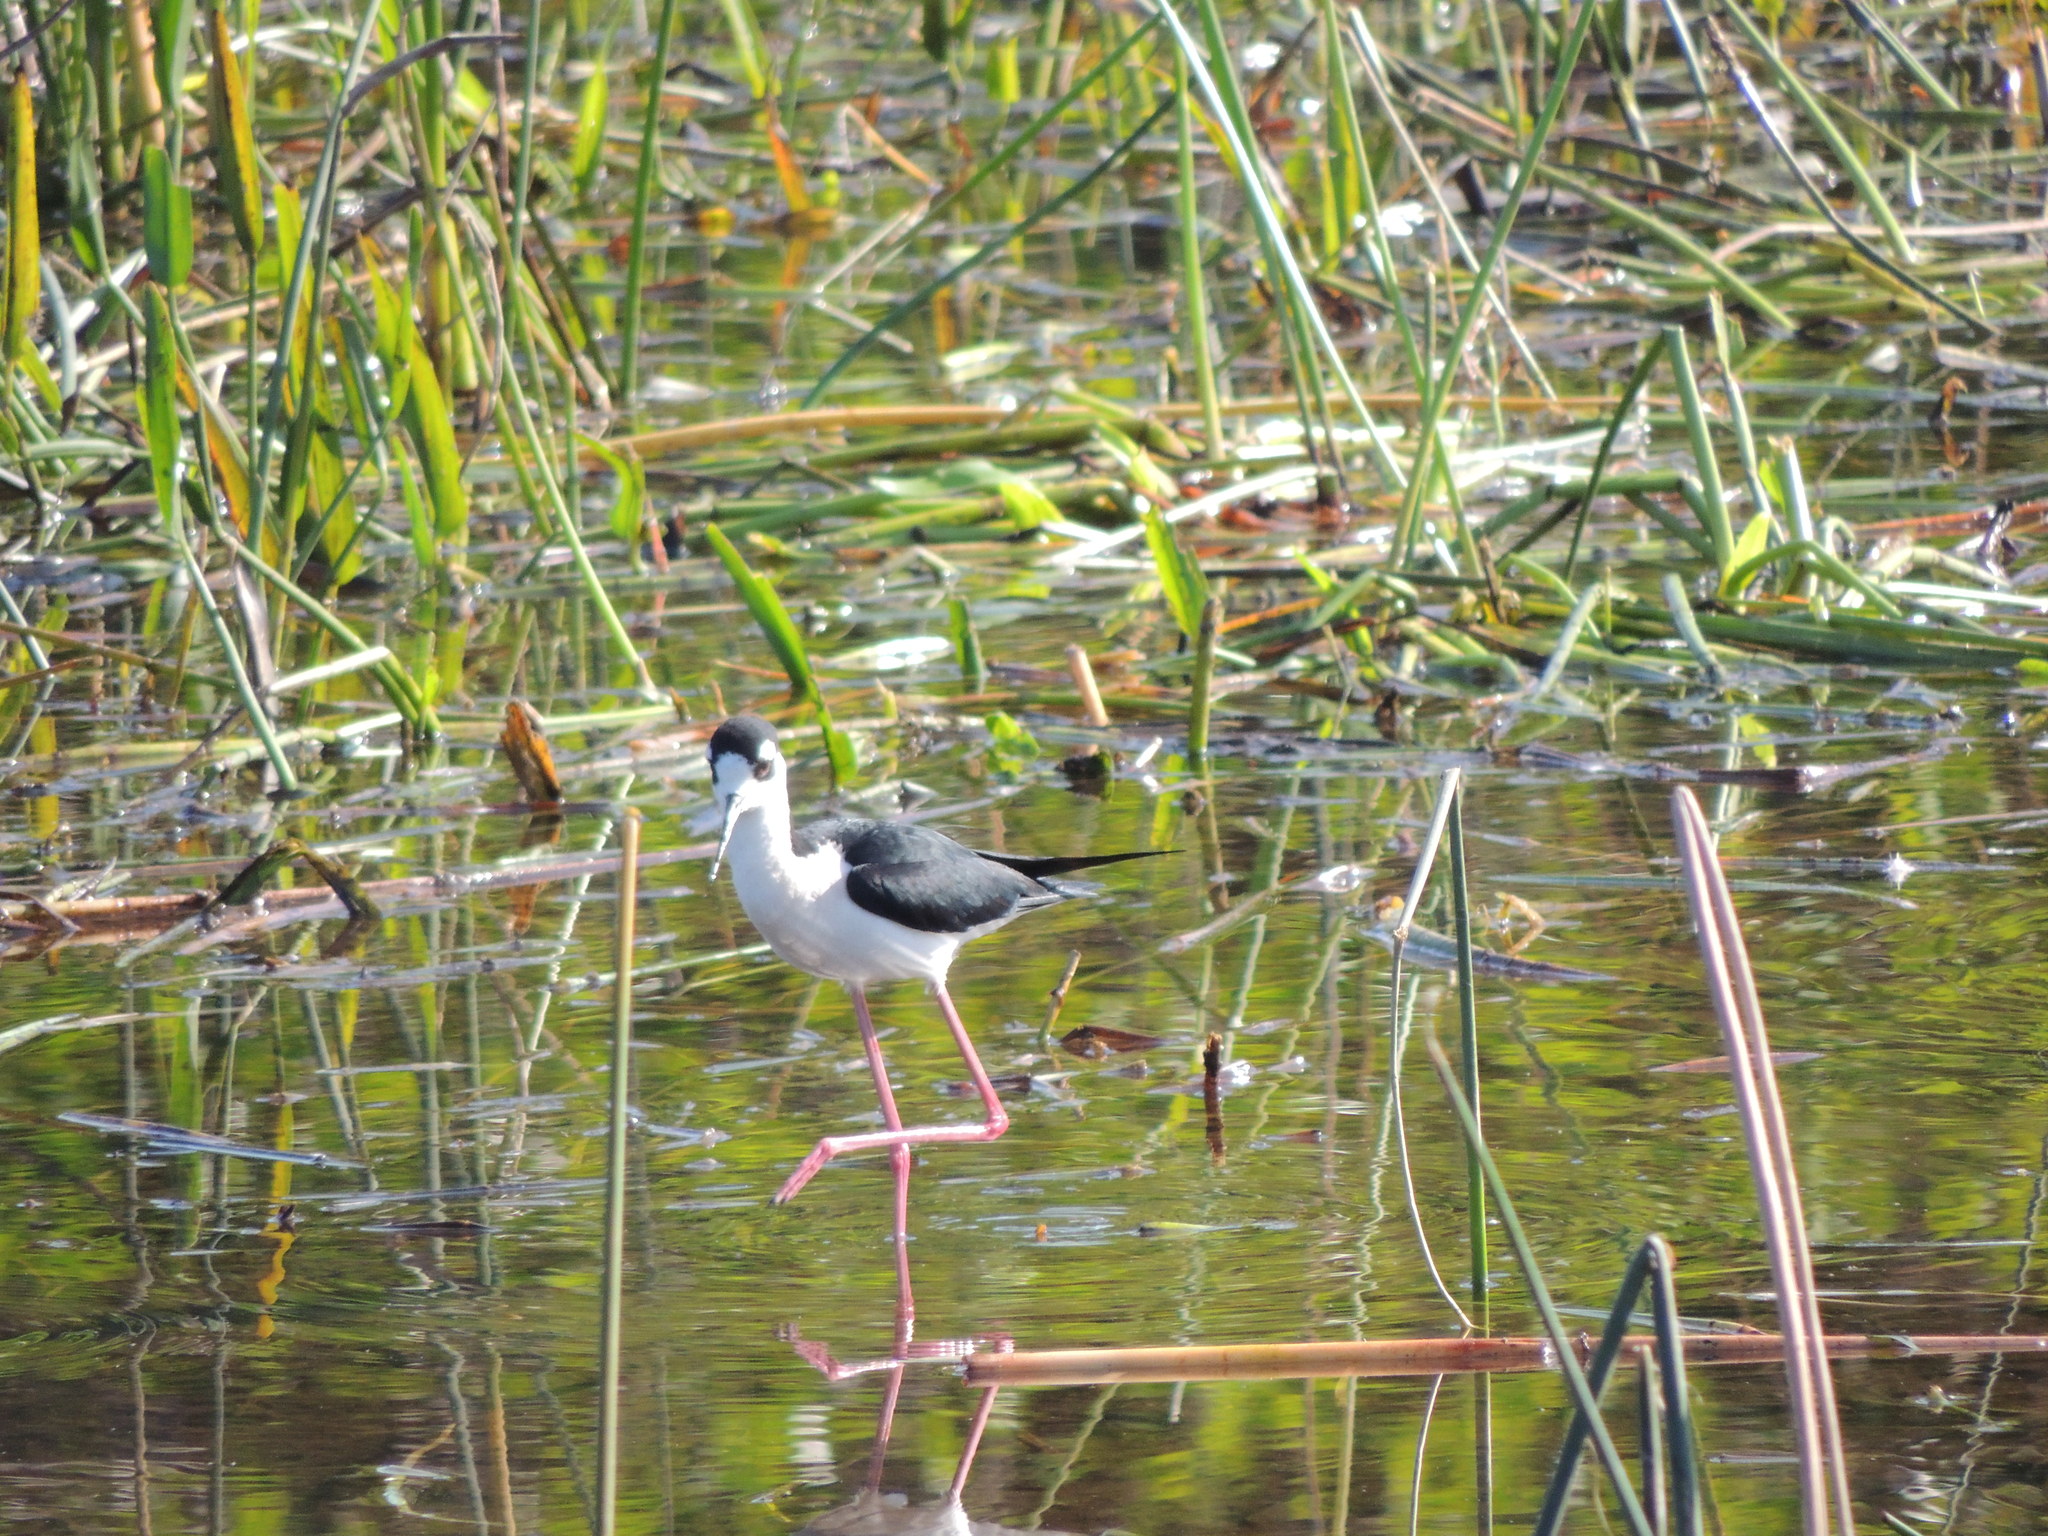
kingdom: Animalia
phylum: Chordata
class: Aves
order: Charadriiformes
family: Recurvirostridae
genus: Himantopus
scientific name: Himantopus mexicanus
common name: Black-necked stilt
